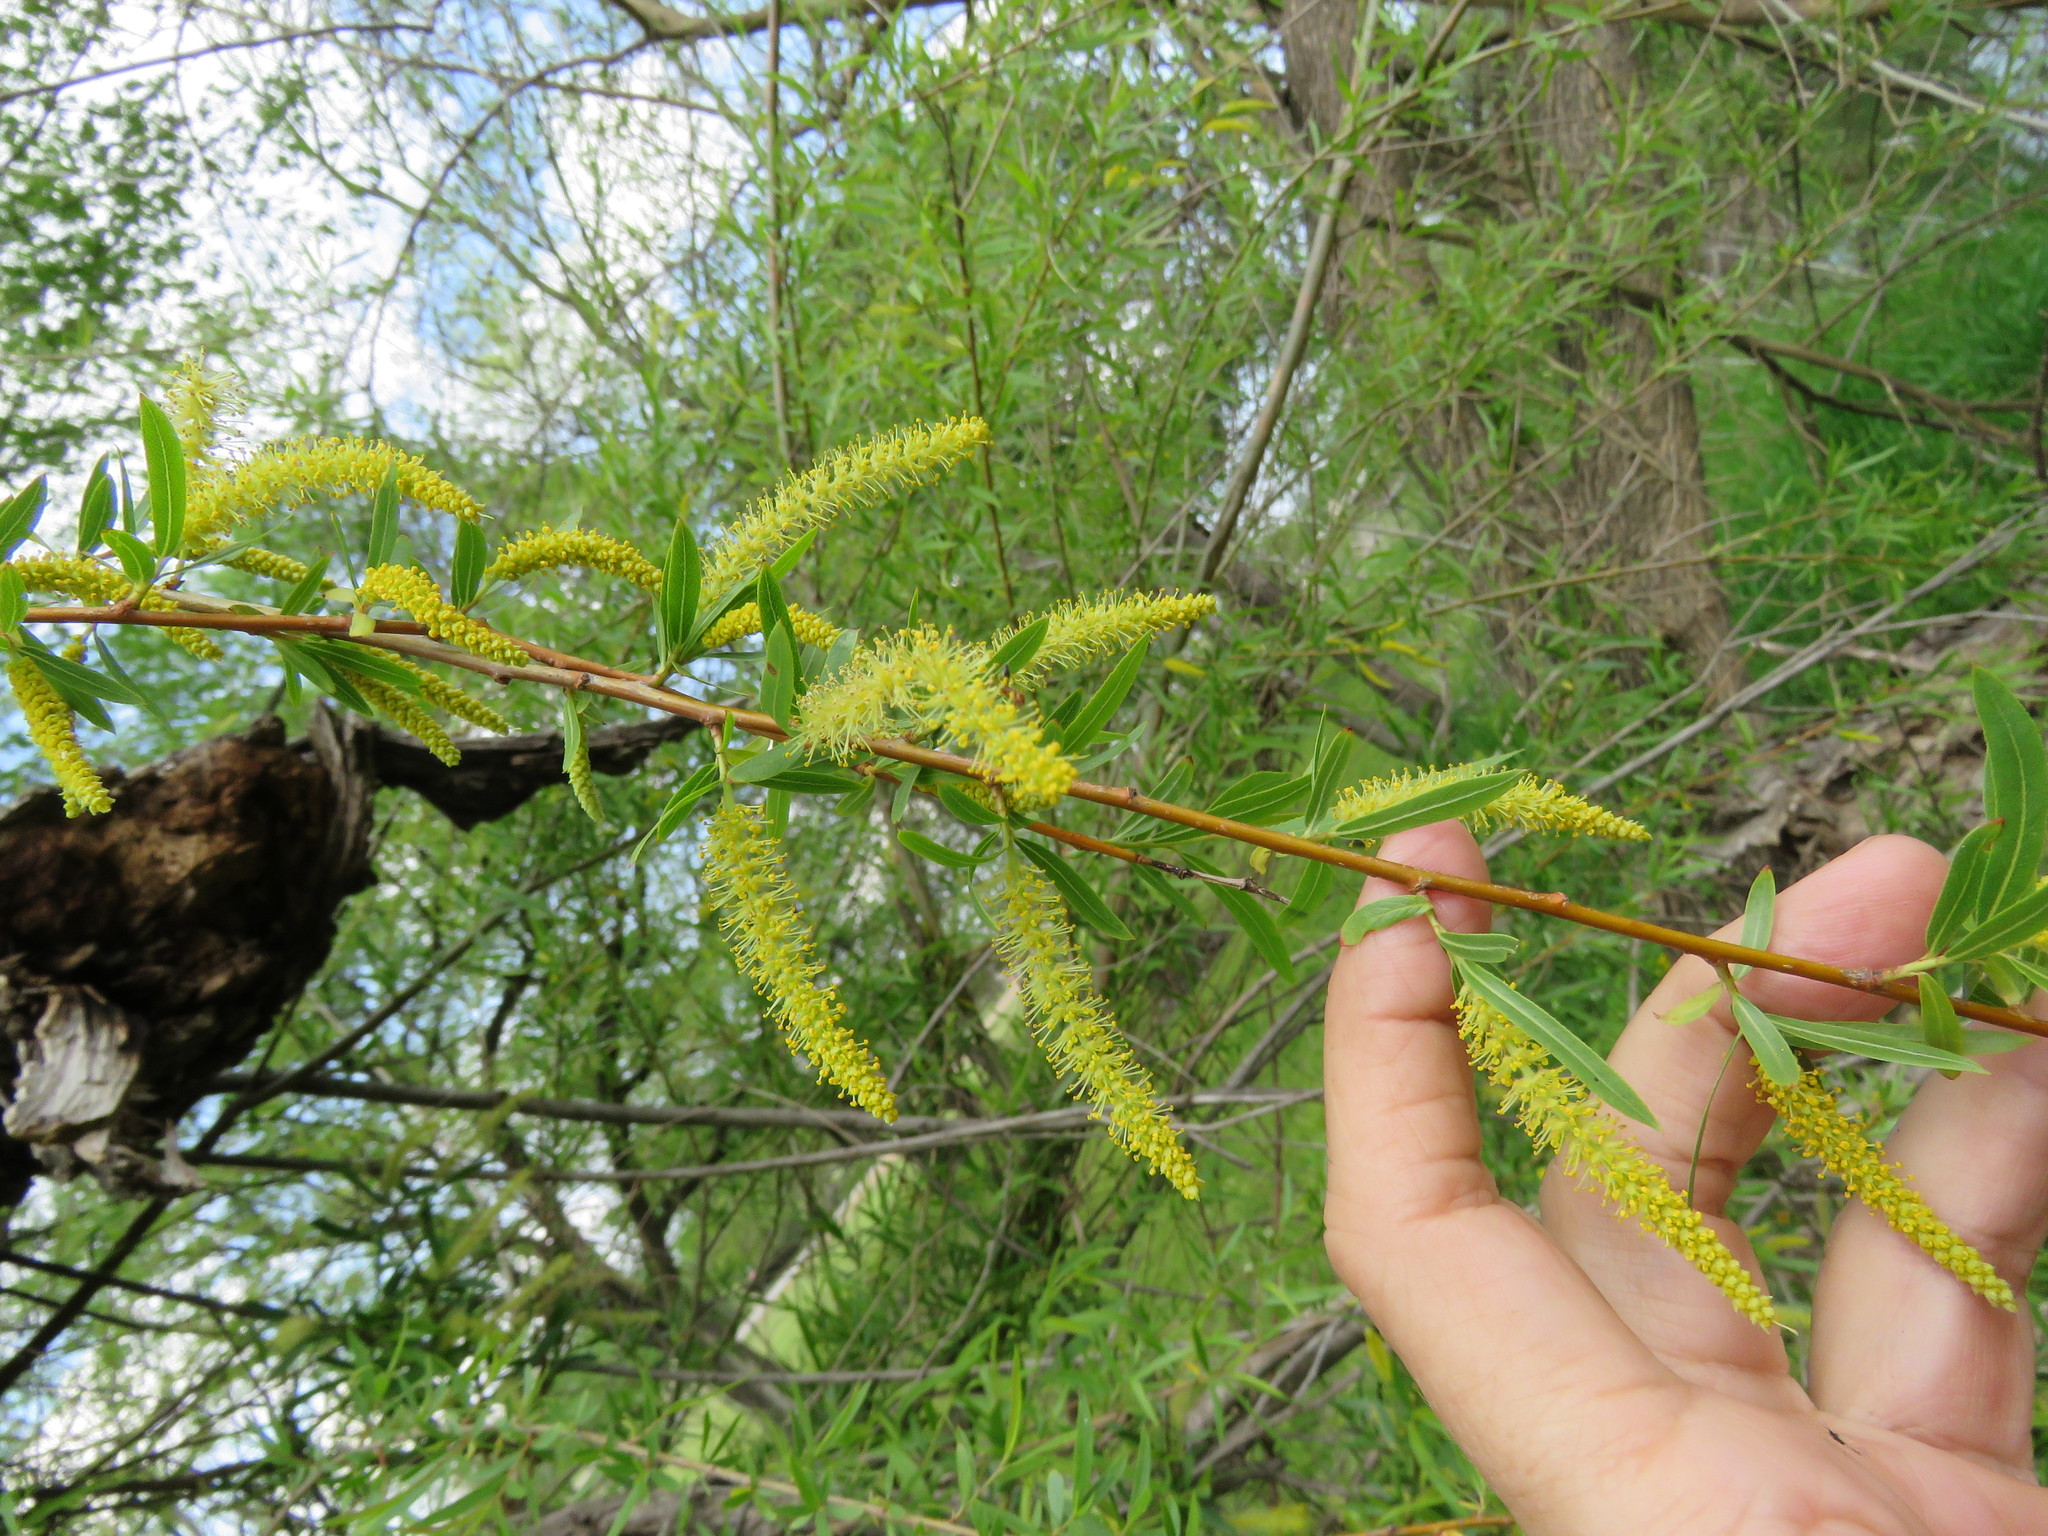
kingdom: Plantae
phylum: Tracheophyta
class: Magnoliopsida
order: Malpighiales
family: Salicaceae
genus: Salix
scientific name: Salix nigra
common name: Black willow
